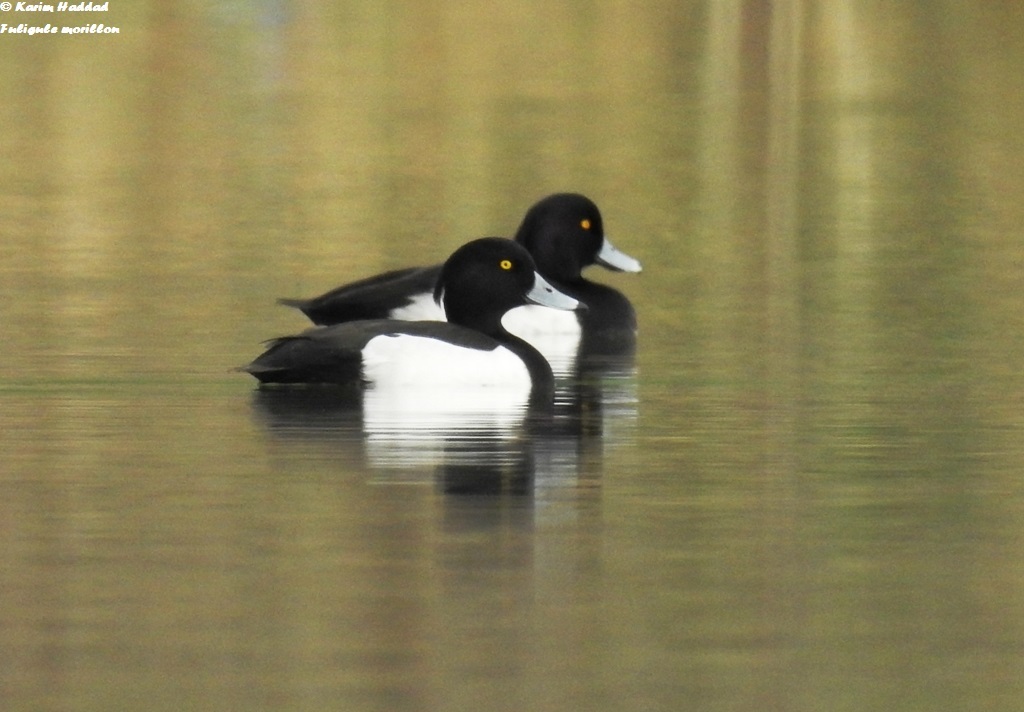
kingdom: Animalia
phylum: Chordata
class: Aves
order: Anseriformes
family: Anatidae
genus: Aythya
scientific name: Aythya fuligula
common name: Tufted duck
